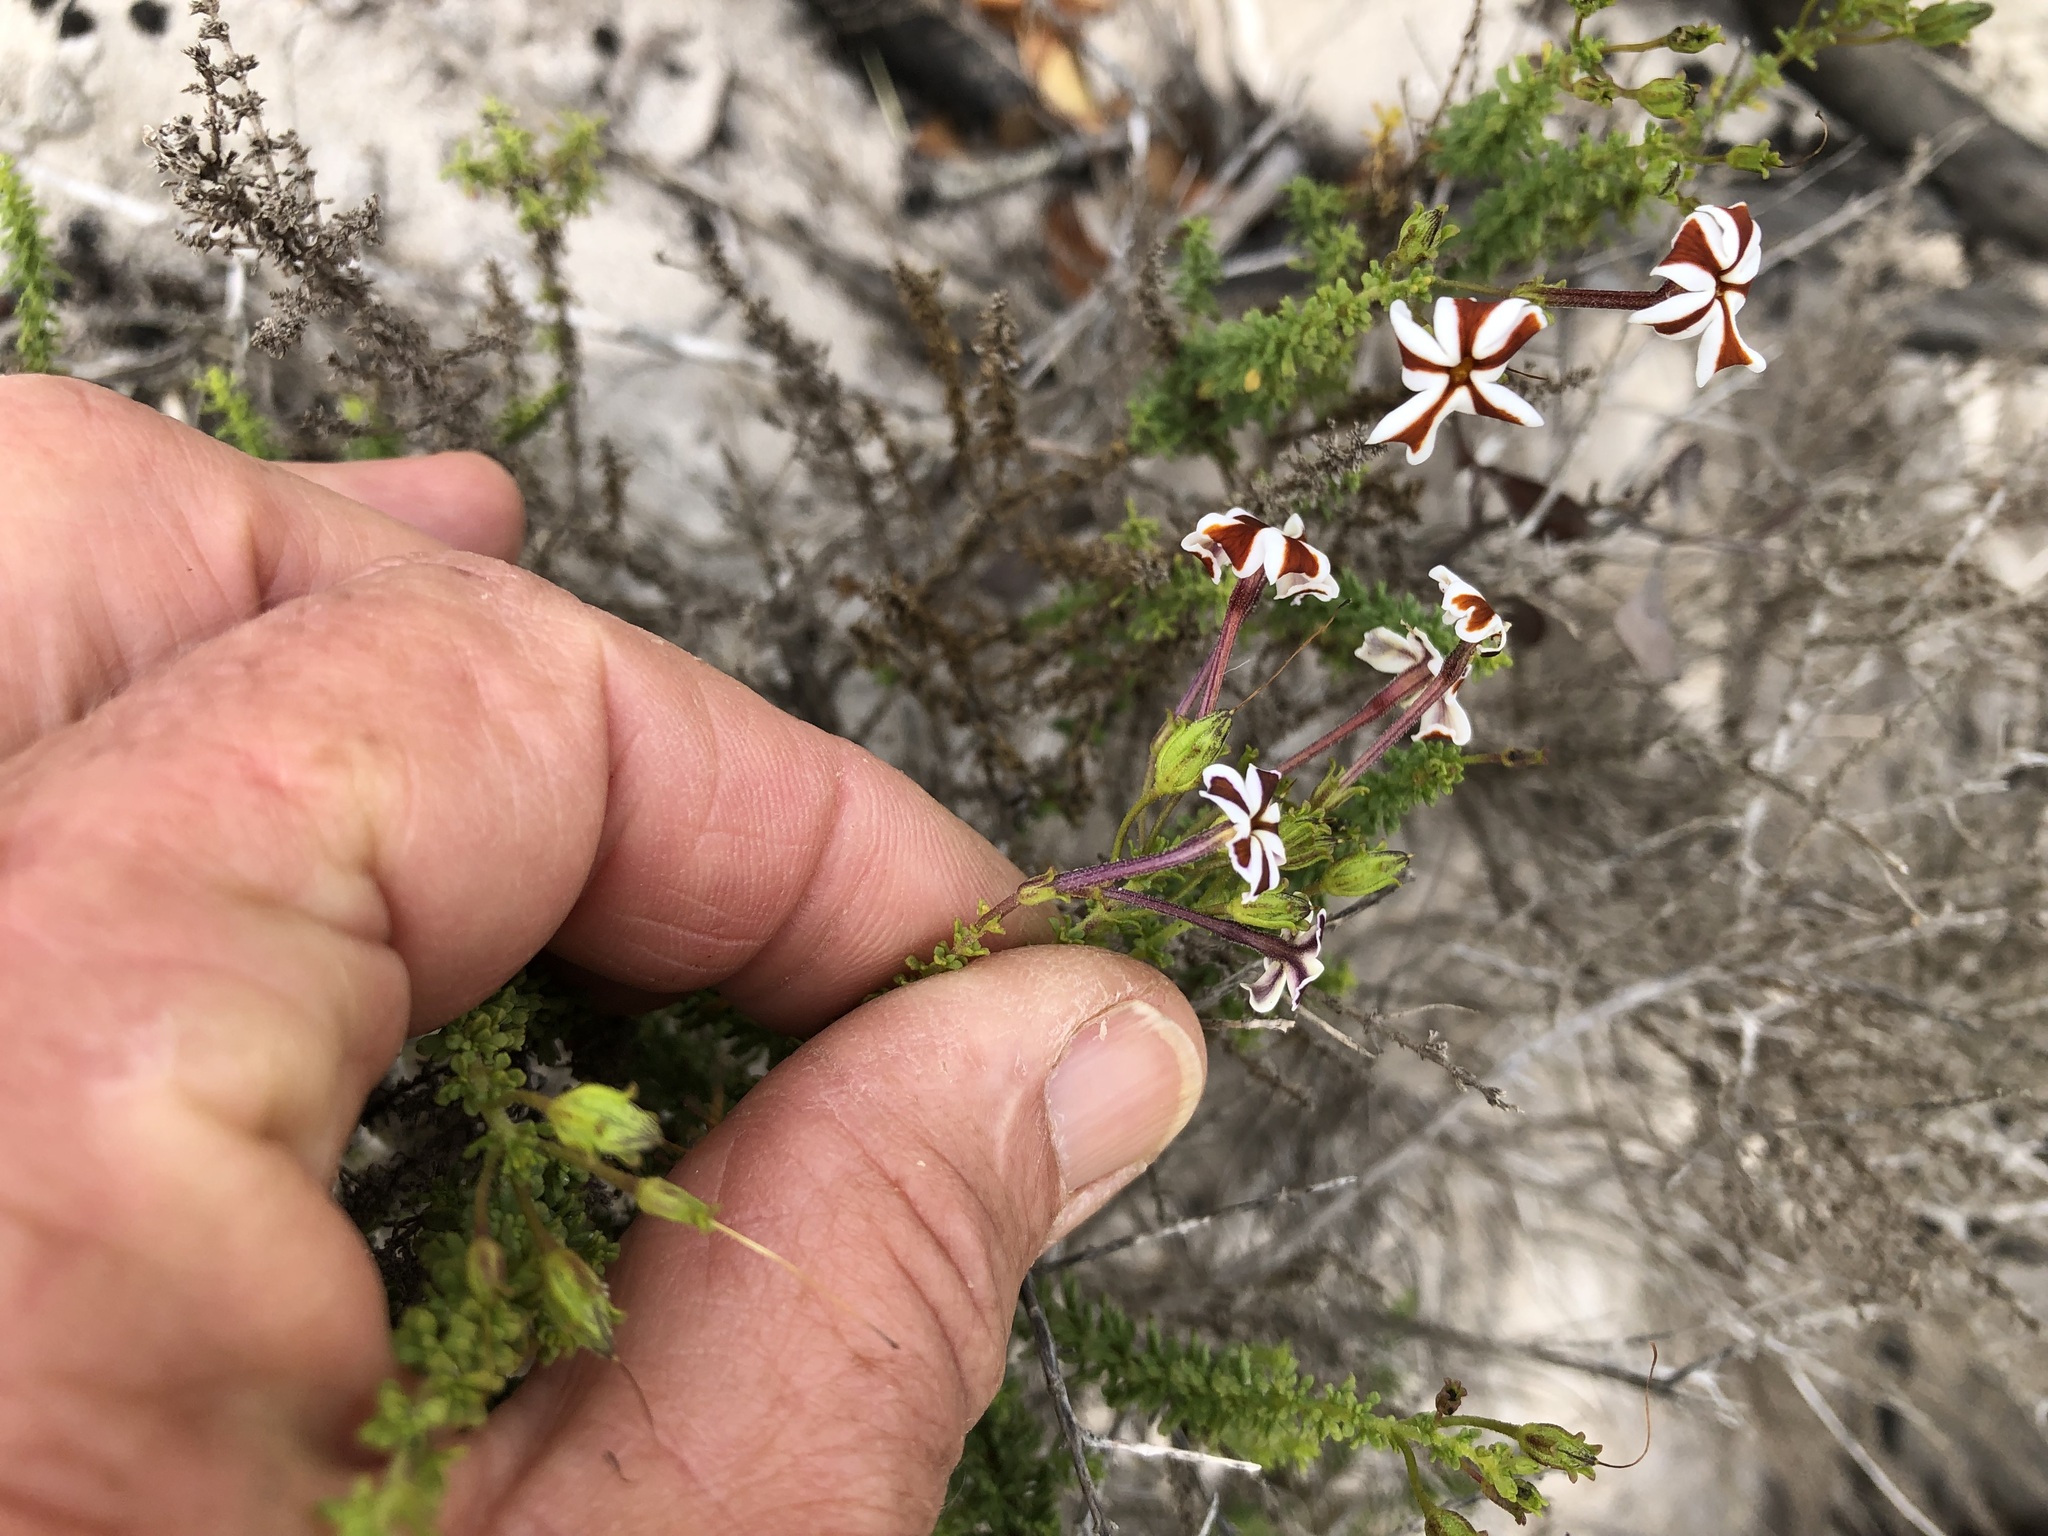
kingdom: Plantae
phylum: Tracheophyta
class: Magnoliopsida
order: Lamiales
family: Scrophulariaceae
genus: Jamesbrittenia
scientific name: Jamesbrittenia albomarginata
